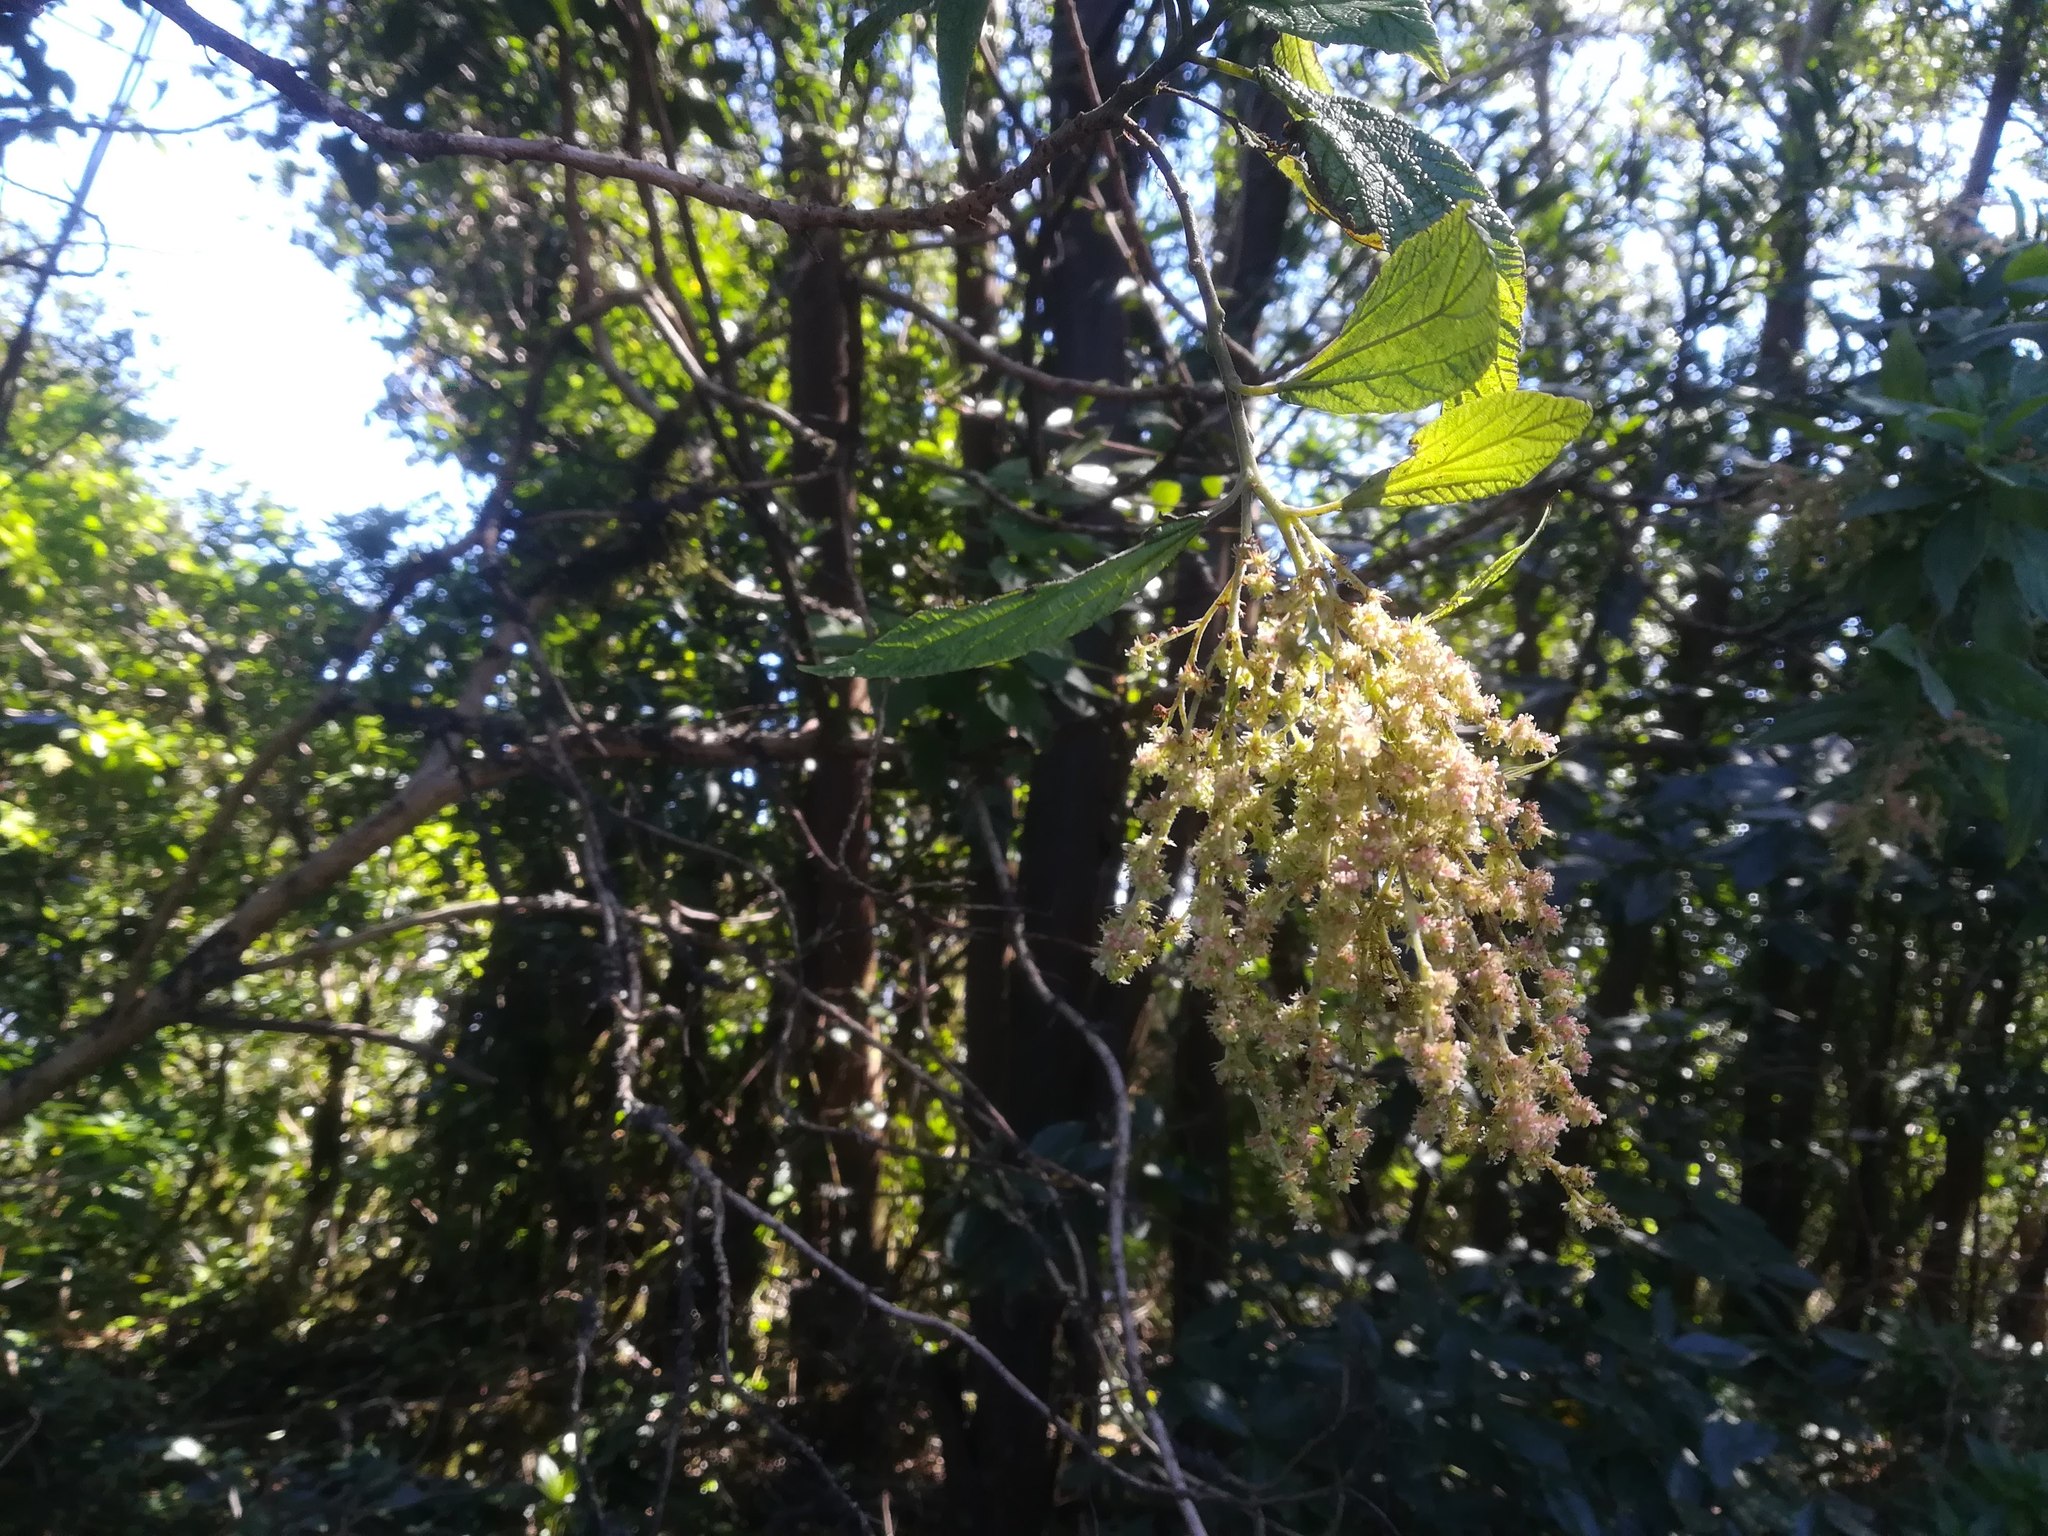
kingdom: Plantae
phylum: Tracheophyta
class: Magnoliopsida
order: Rosales
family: Urticaceae
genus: Gesnouinia
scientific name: Gesnouinia arborea
